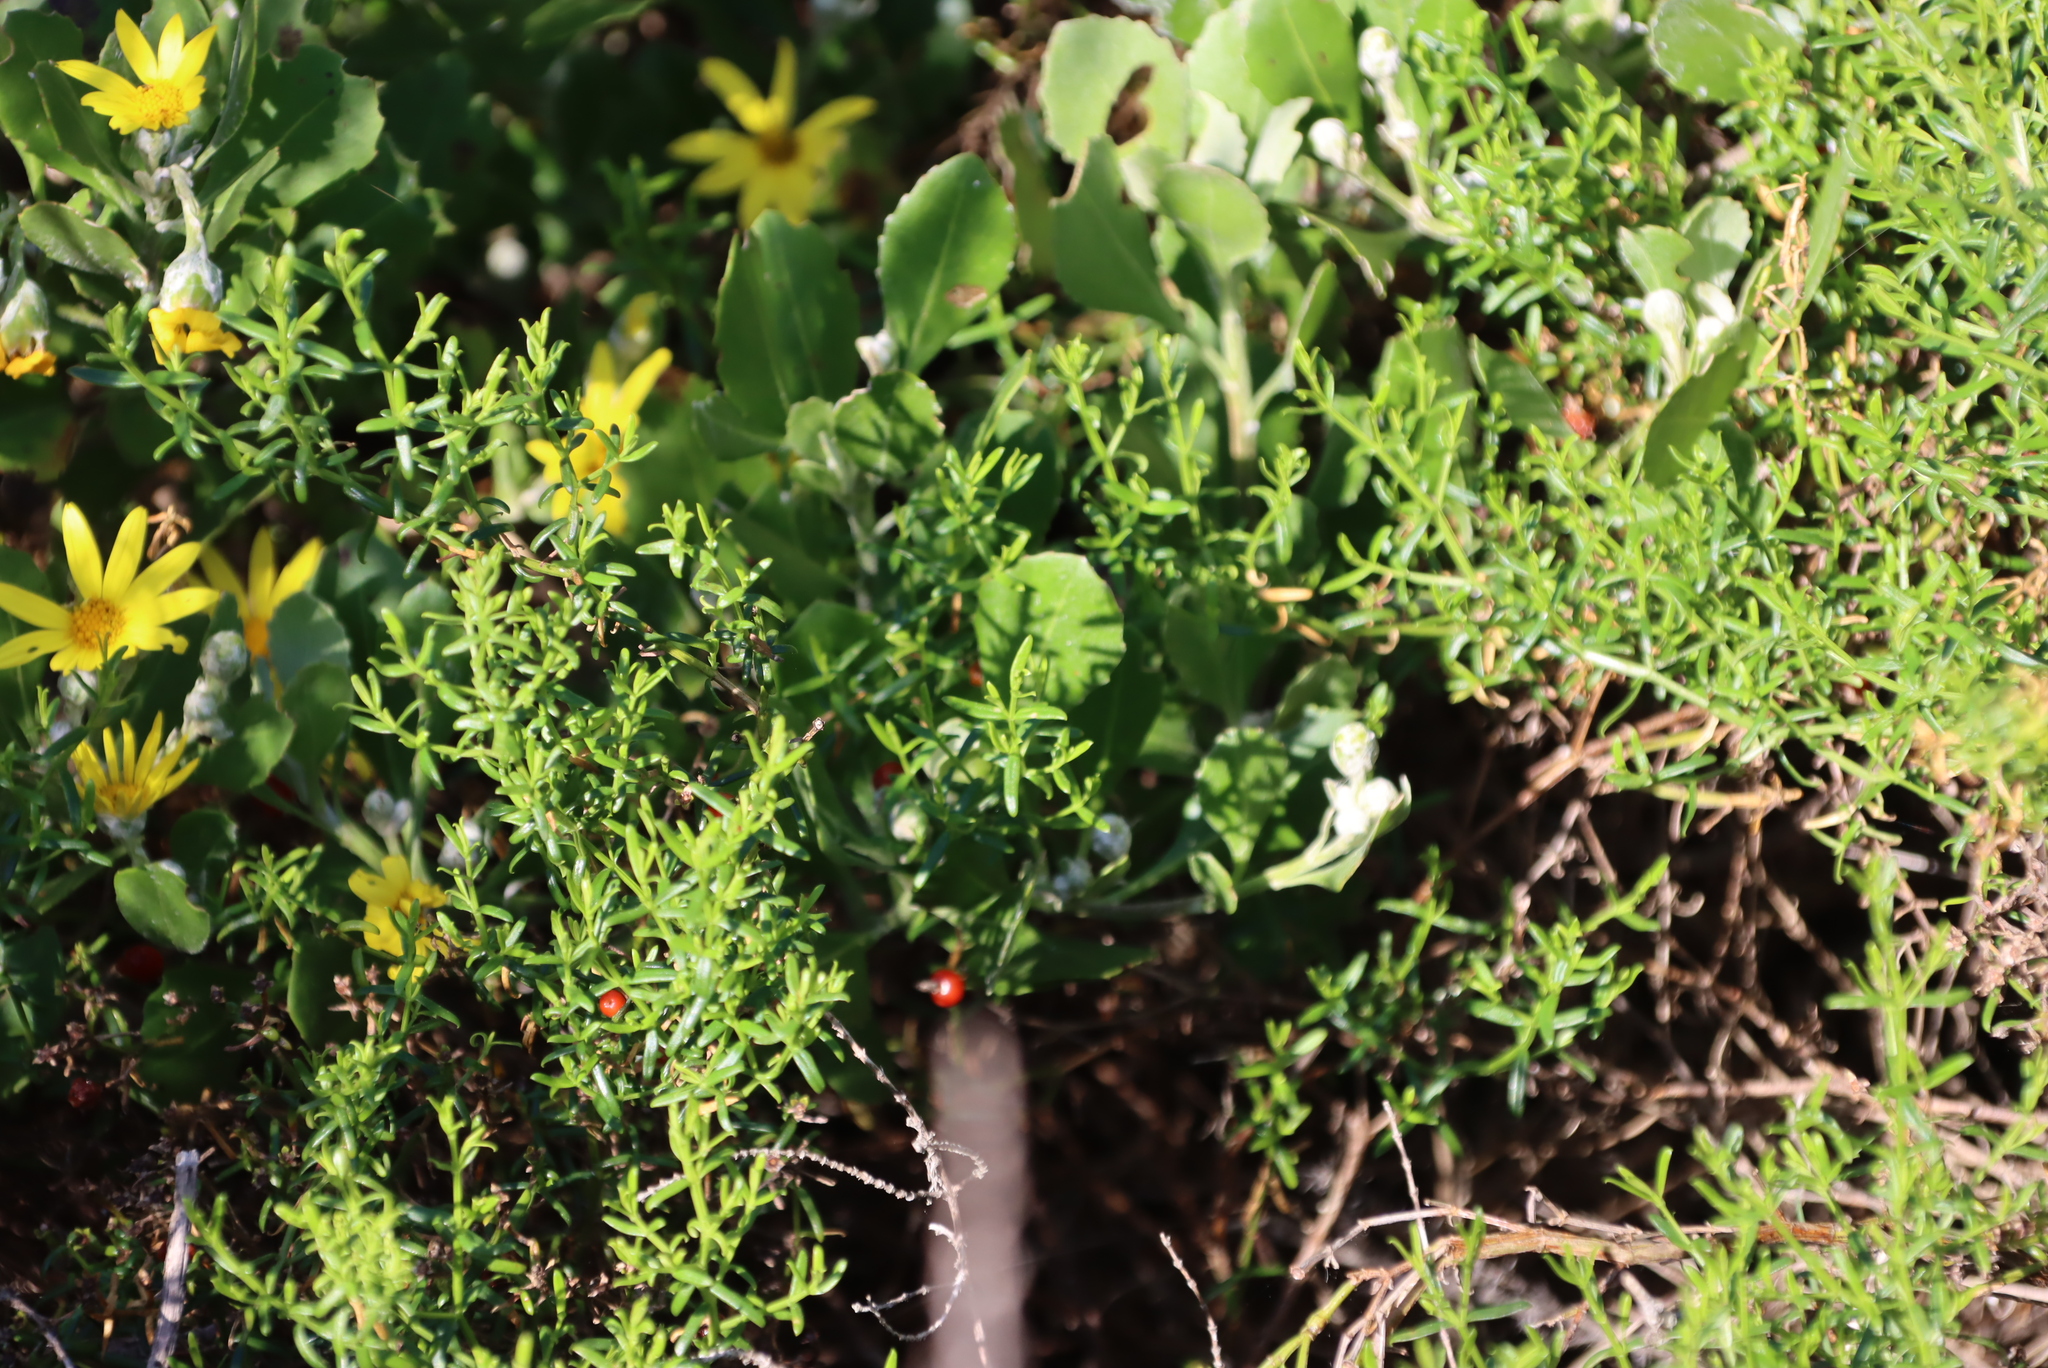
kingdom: Plantae
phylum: Tracheophyta
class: Magnoliopsida
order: Gentianales
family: Gentianaceae
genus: Chironia
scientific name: Chironia baccifera
